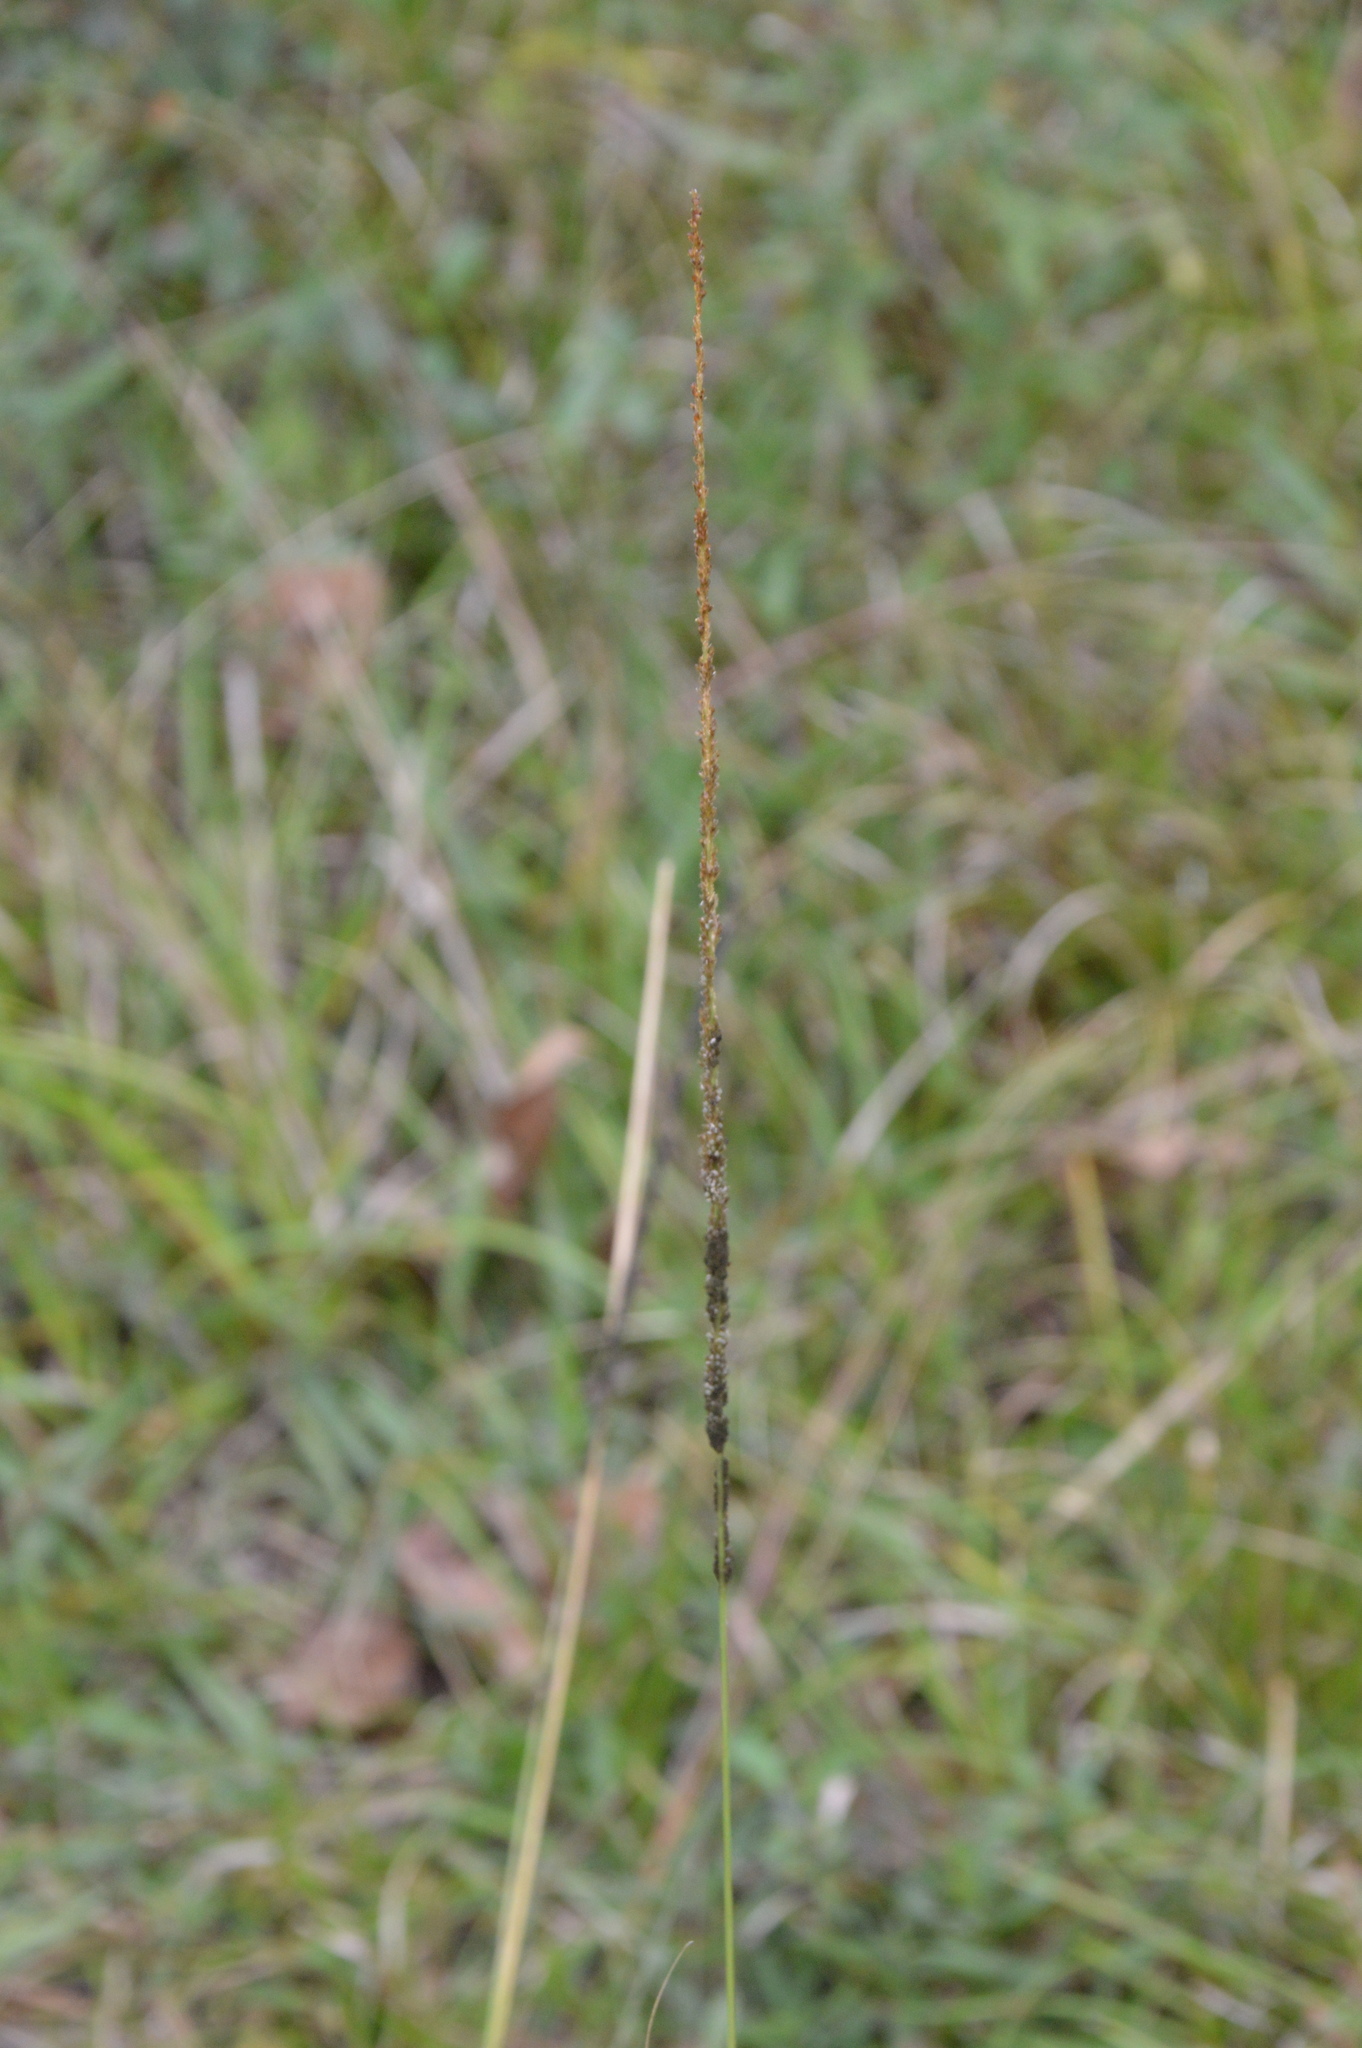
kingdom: Plantae
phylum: Tracheophyta
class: Liliopsida
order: Poales
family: Poaceae
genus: Sporobolus
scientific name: Sporobolus indicus
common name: Smut grass
